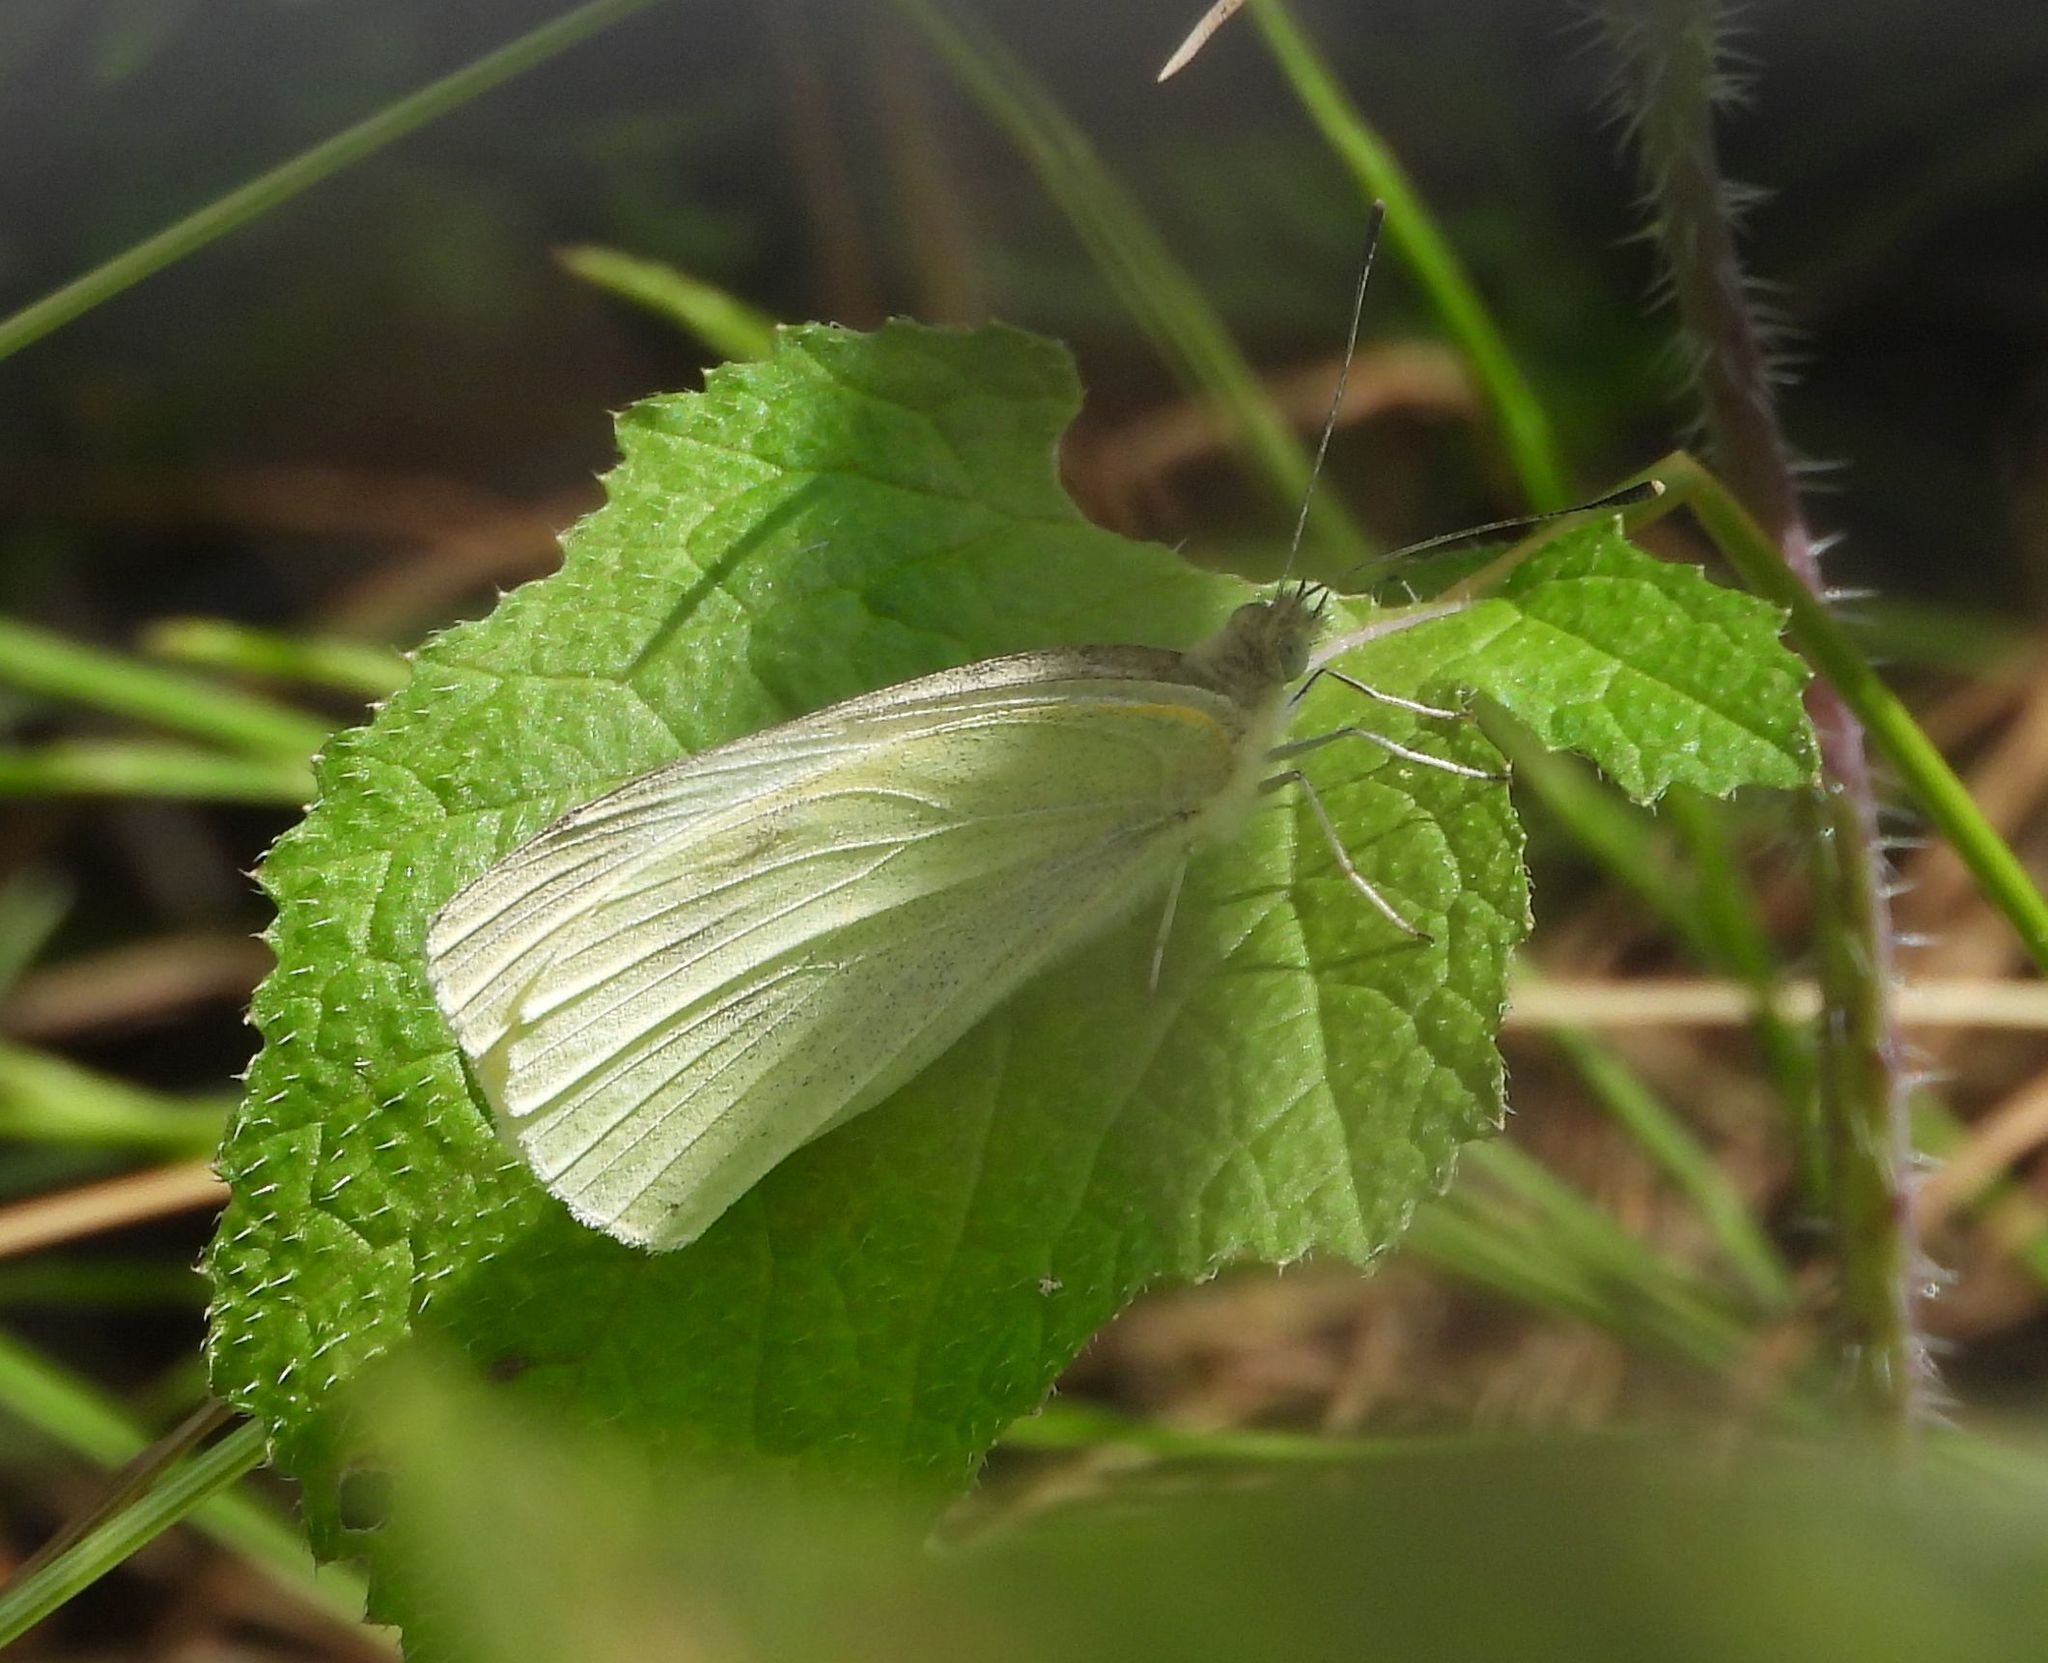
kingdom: Animalia
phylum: Arthropoda
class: Insecta
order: Lepidoptera
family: Pieridae
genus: Pieris
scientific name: Pieris rapae
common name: Small white
